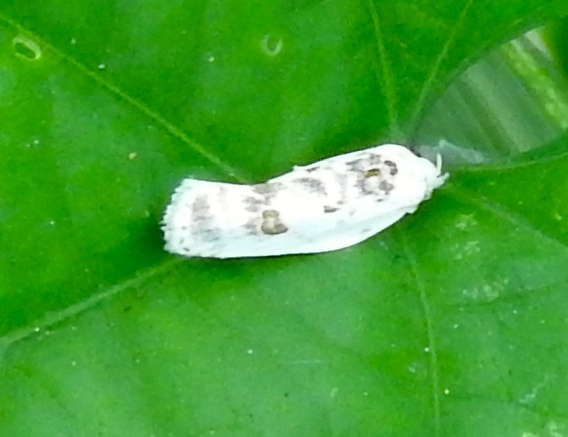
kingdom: Animalia
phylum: Arthropoda
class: Insecta
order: Lepidoptera
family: Depressariidae
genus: Antaeotricha
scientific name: Antaeotricha
